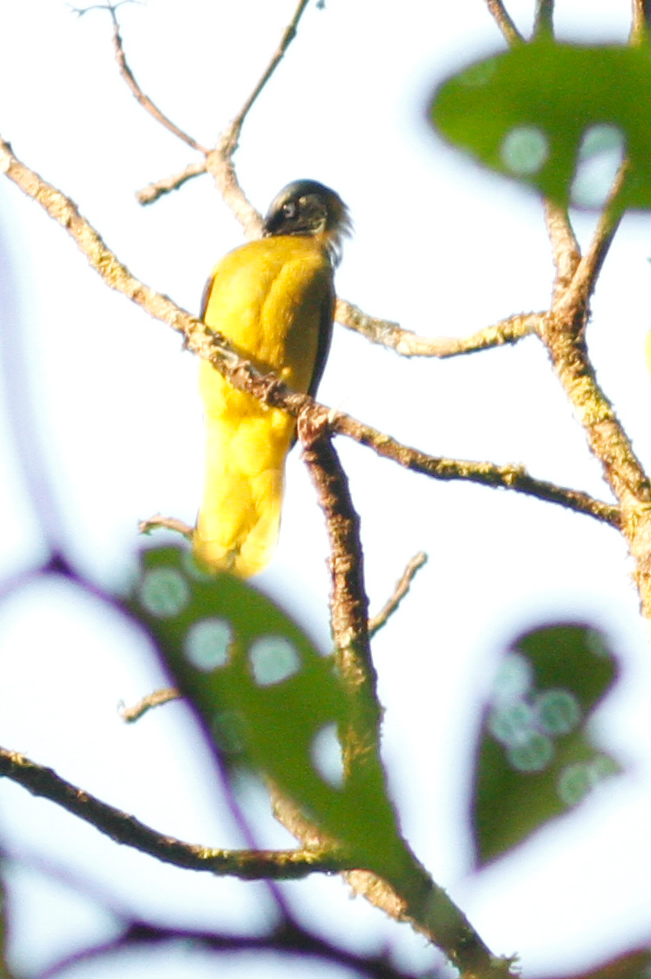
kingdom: Animalia
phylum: Chordata
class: Aves
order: Passeriformes
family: Pycnonotidae
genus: Microtarsus
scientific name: Microtarsus
